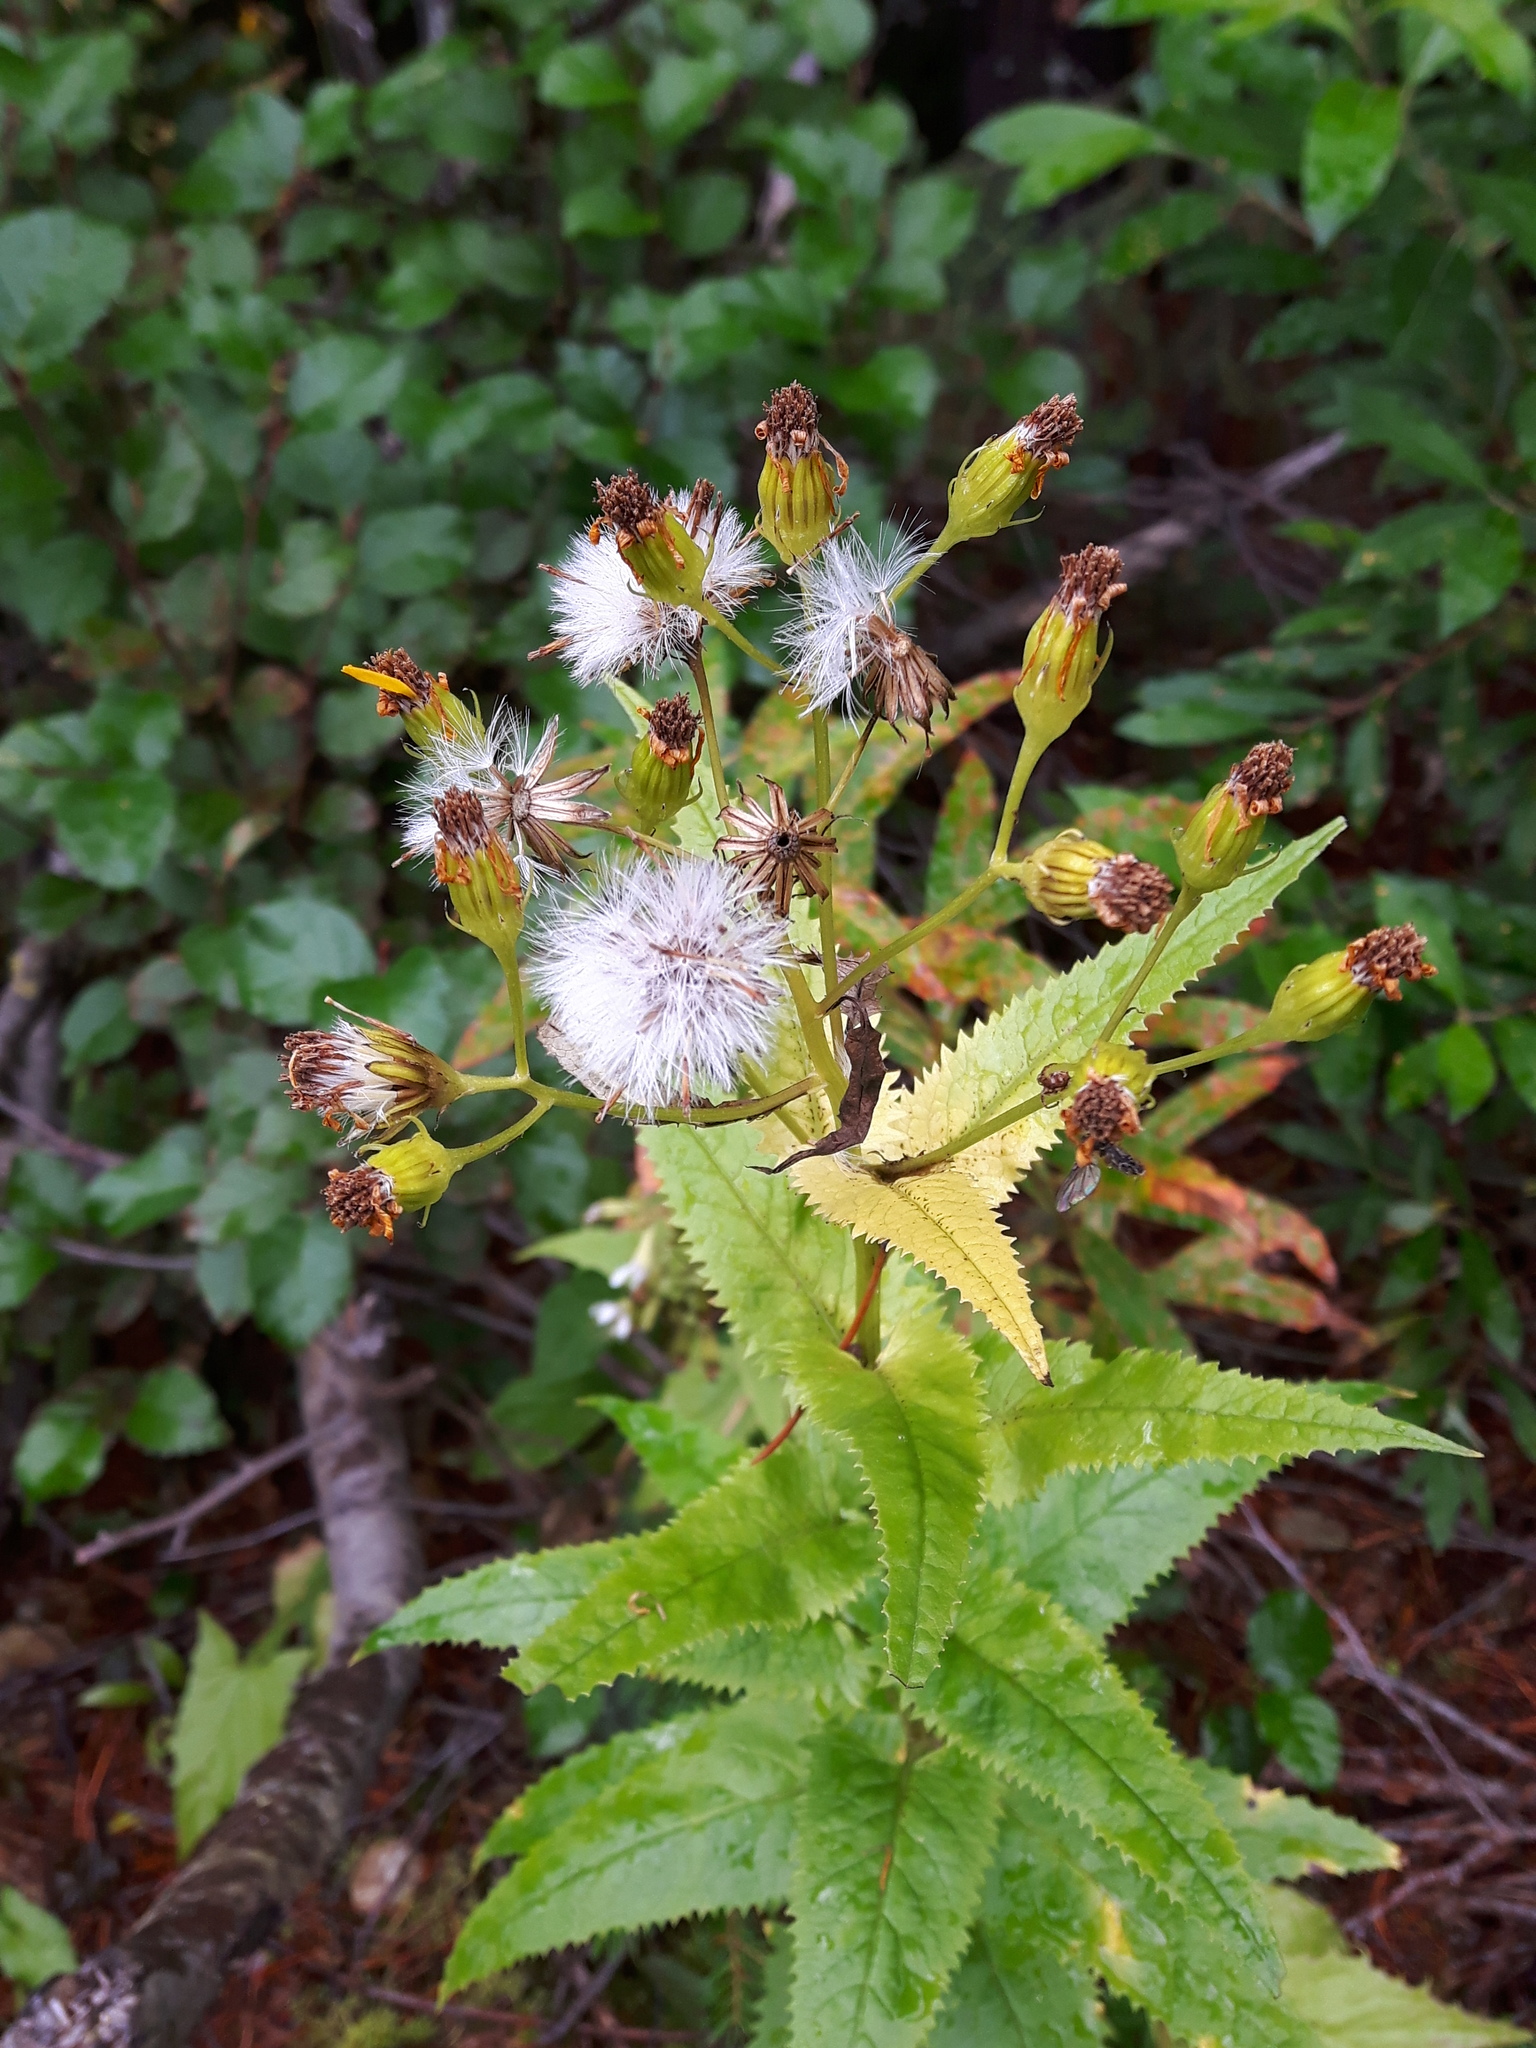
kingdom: Plantae
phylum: Tracheophyta
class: Magnoliopsida
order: Asterales
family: Asteraceae
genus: Senecio
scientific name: Senecio triangularis
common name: Arrowleaf butterweed
